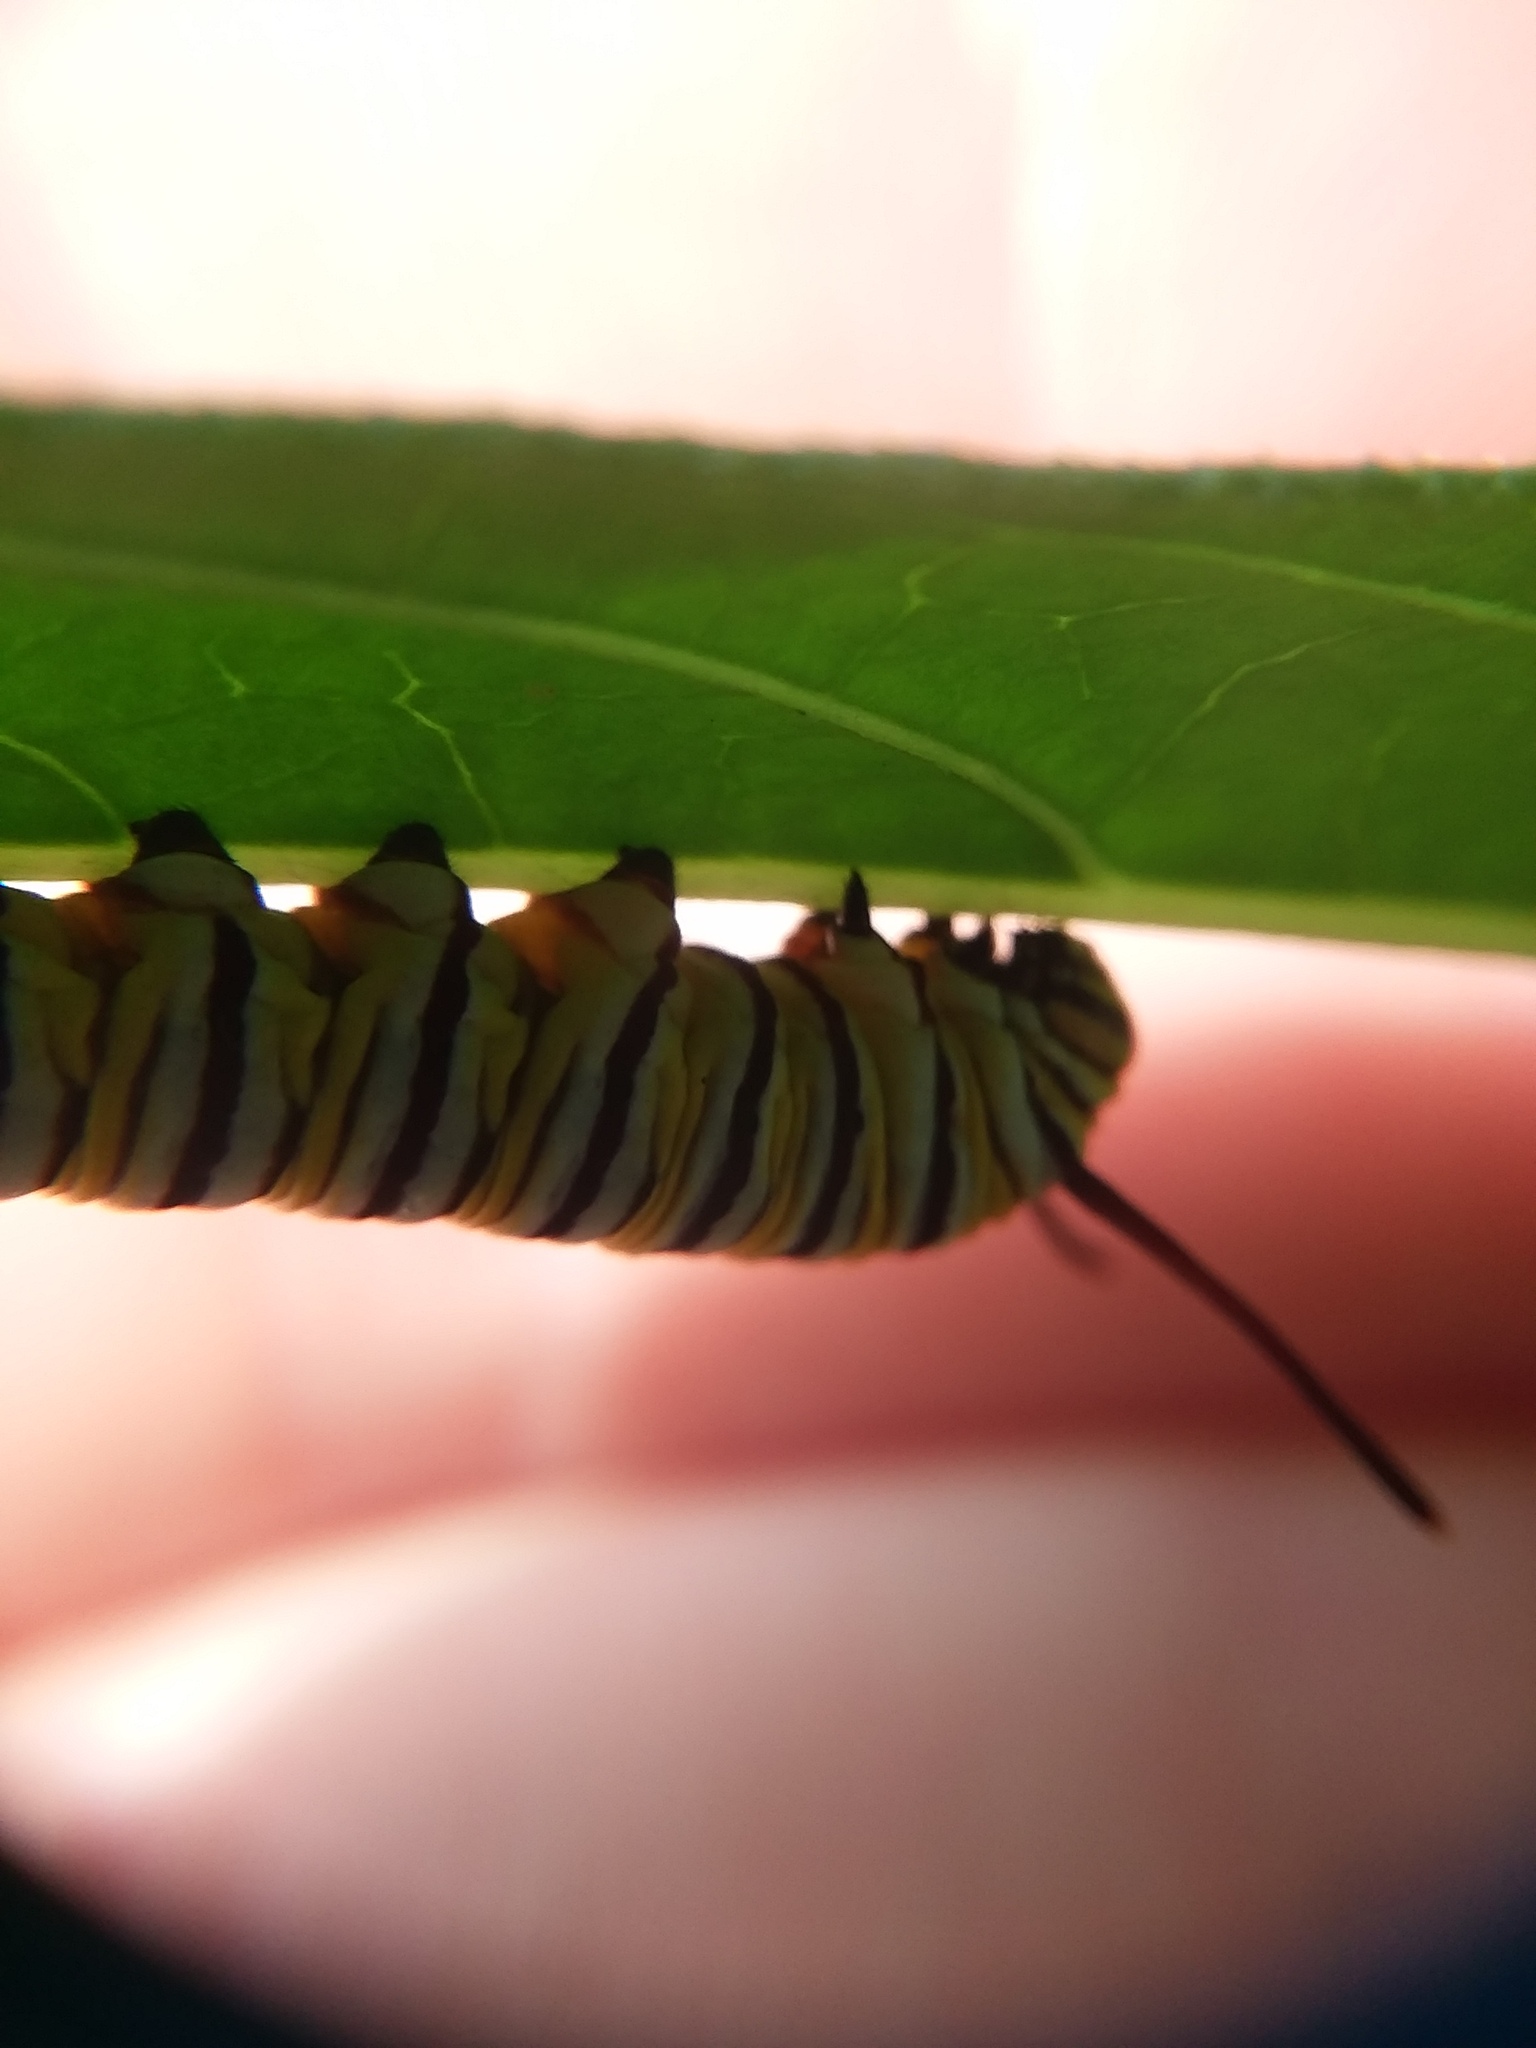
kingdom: Animalia
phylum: Arthropoda
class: Insecta
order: Lepidoptera
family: Nymphalidae
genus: Danaus
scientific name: Danaus plexippus
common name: Monarch
